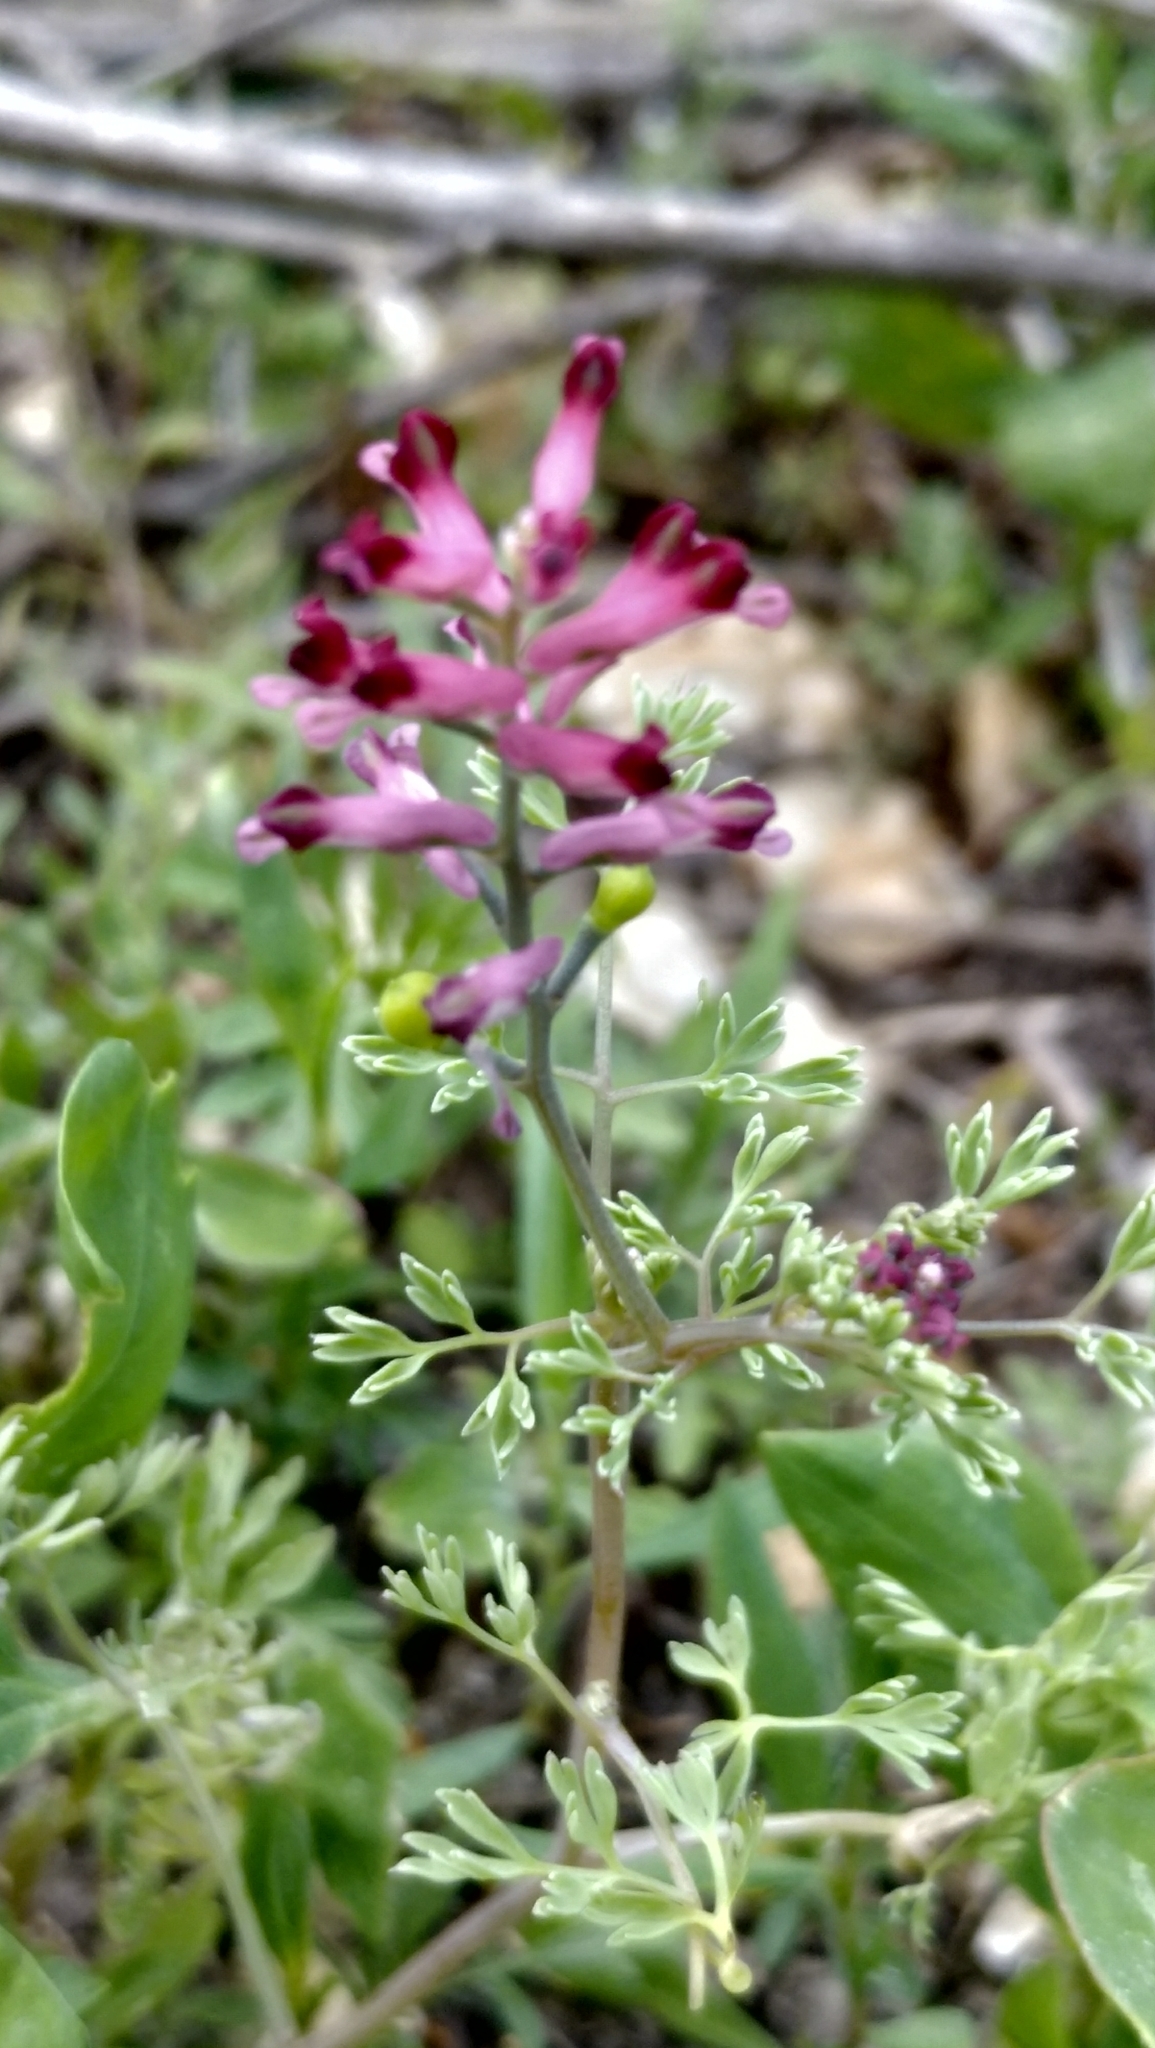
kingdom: Plantae
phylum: Tracheophyta
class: Magnoliopsida
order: Ranunculales
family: Papaveraceae
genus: Fumaria
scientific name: Fumaria schleicheri
